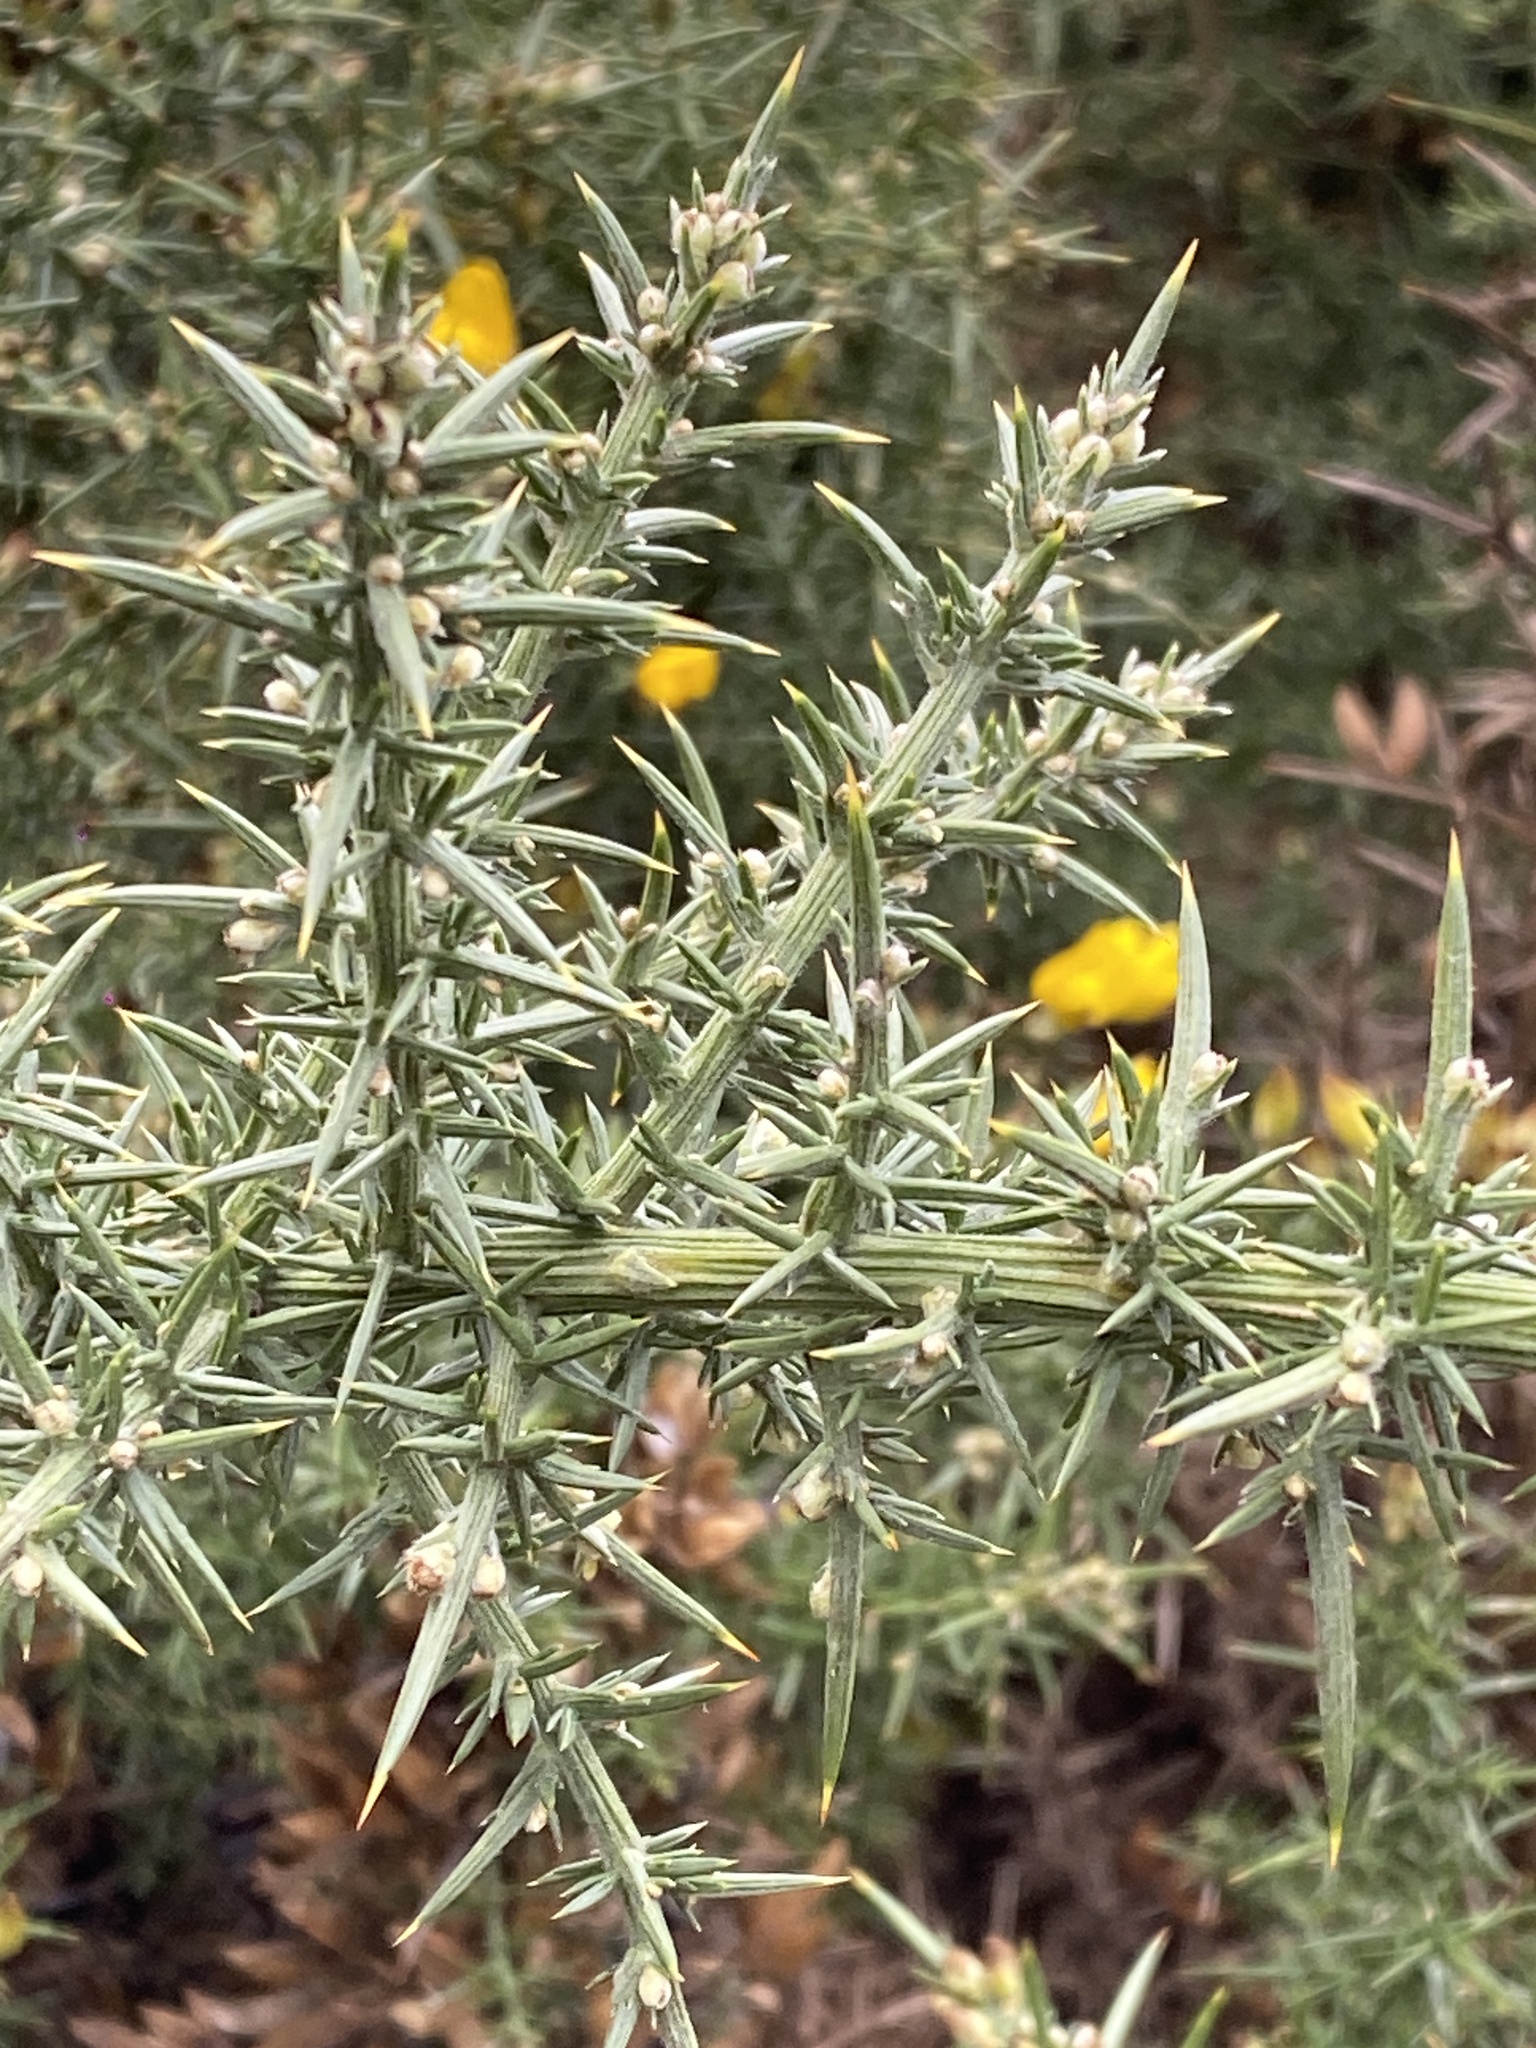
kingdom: Plantae
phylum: Tracheophyta
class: Magnoliopsida
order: Fabales
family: Fabaceae
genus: Ulex
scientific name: Ulex europaeus
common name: Common gorse
